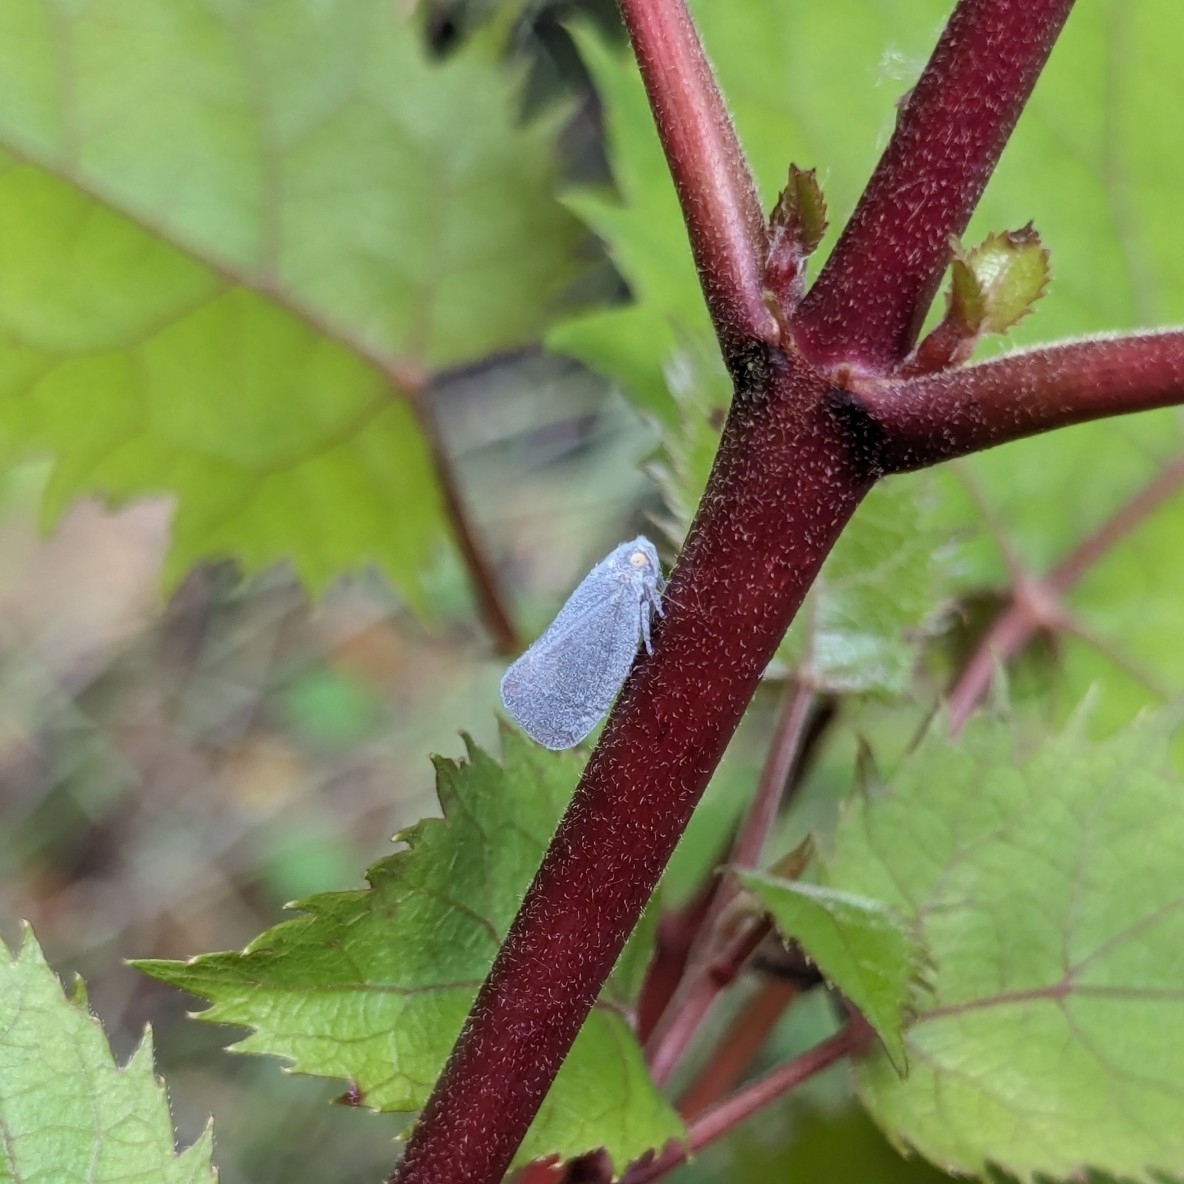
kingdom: Animalia
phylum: Arthropoda
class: Insecta
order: Hemiptera
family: Flatidae
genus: Anzora
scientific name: Anzora unicolor
